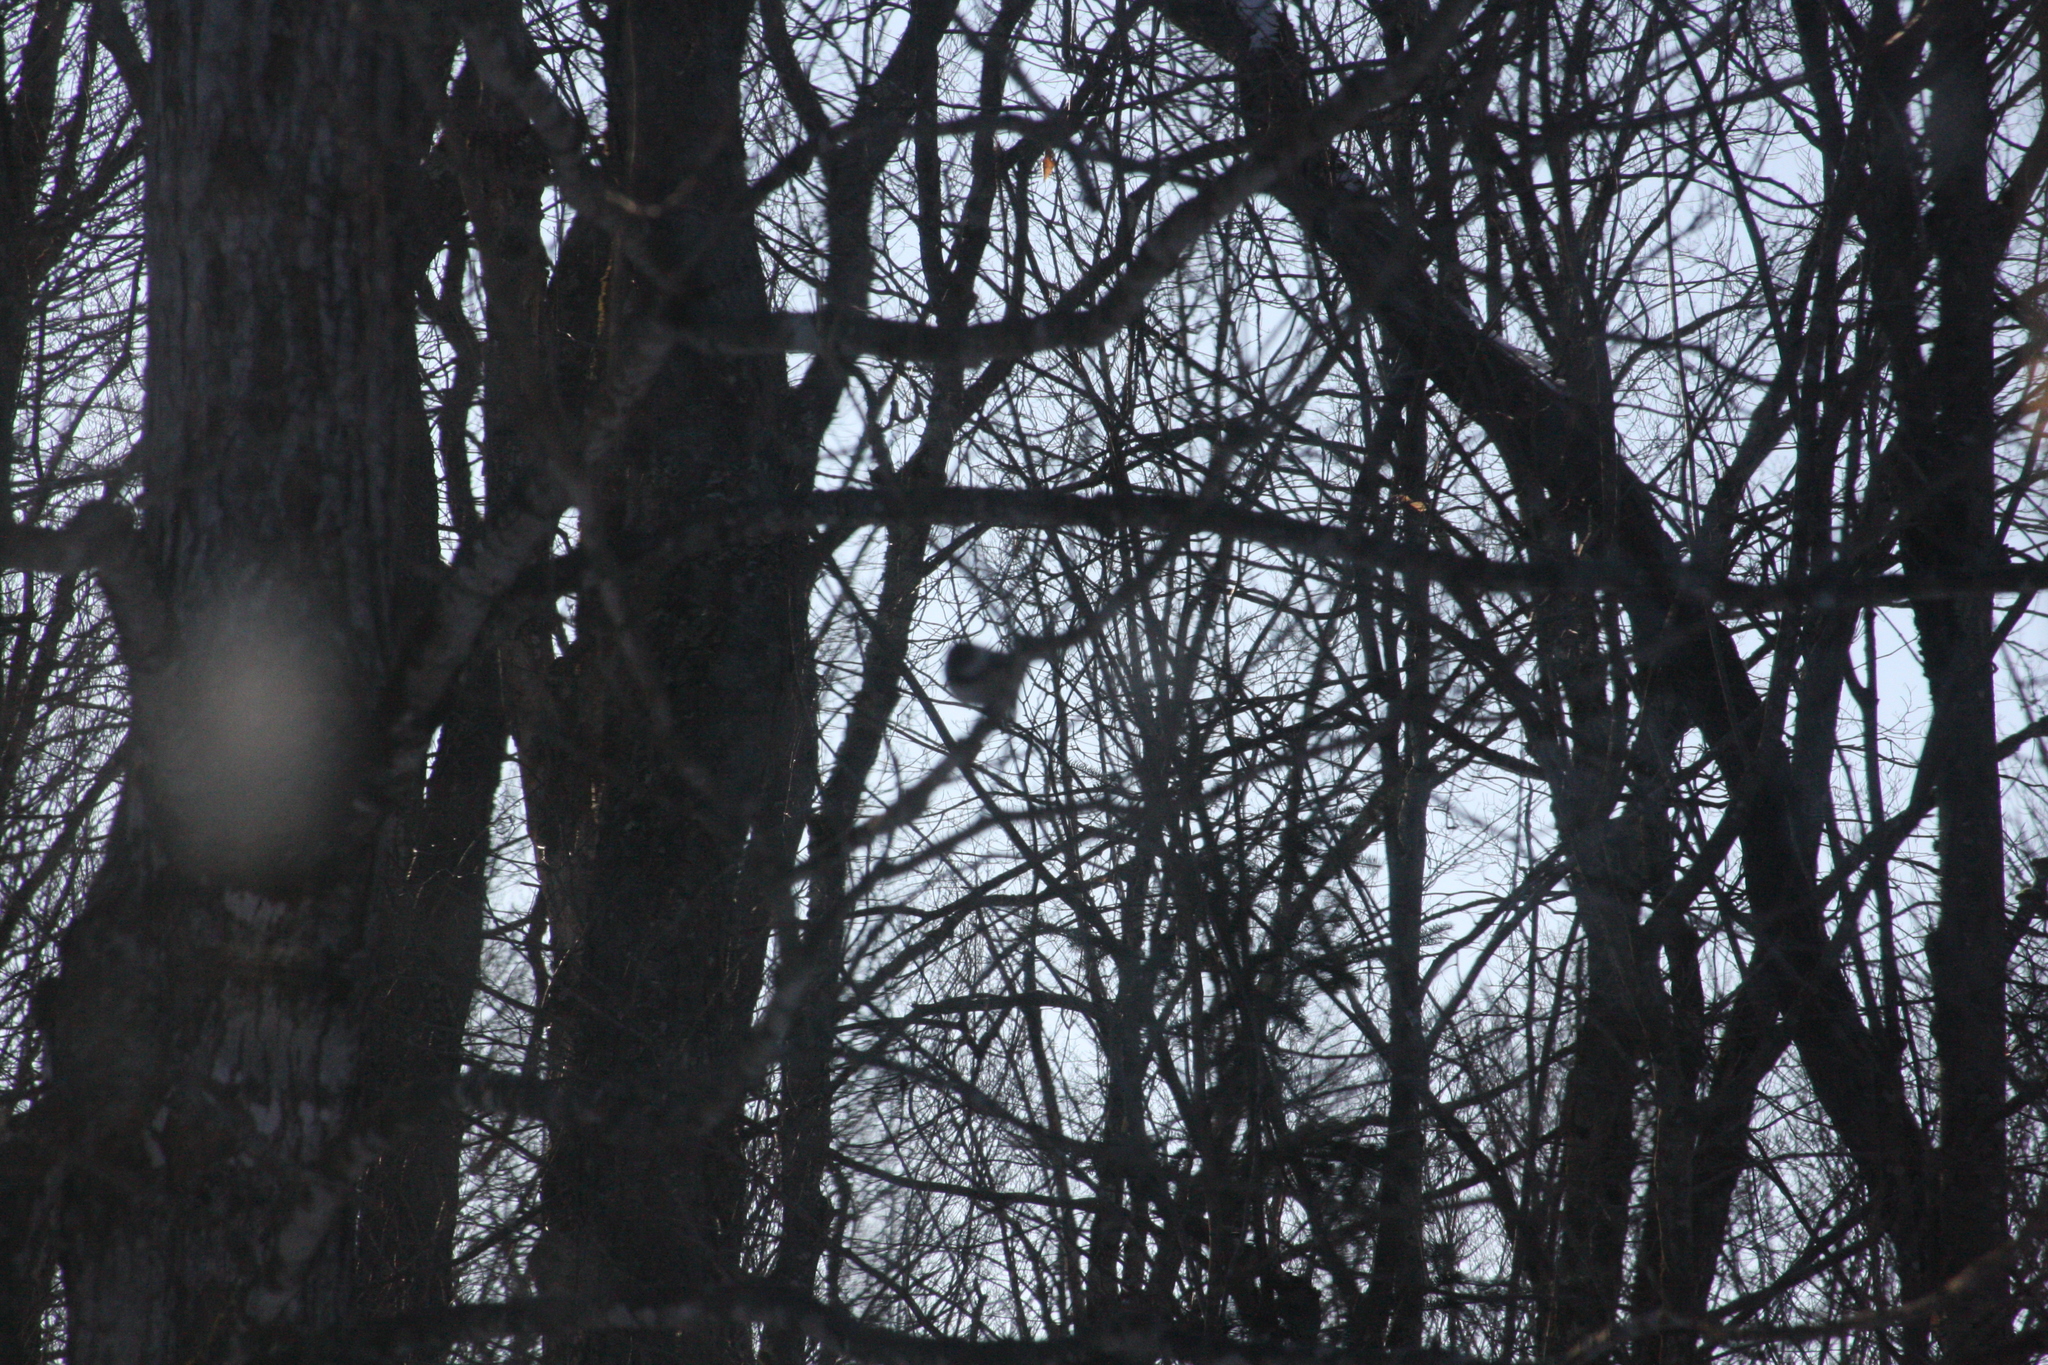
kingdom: Animalia
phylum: Chordata
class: Aves
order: Passeriformes
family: Paridae
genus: Poecile
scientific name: Poecile atricapillus
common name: Black-capped chickadee
